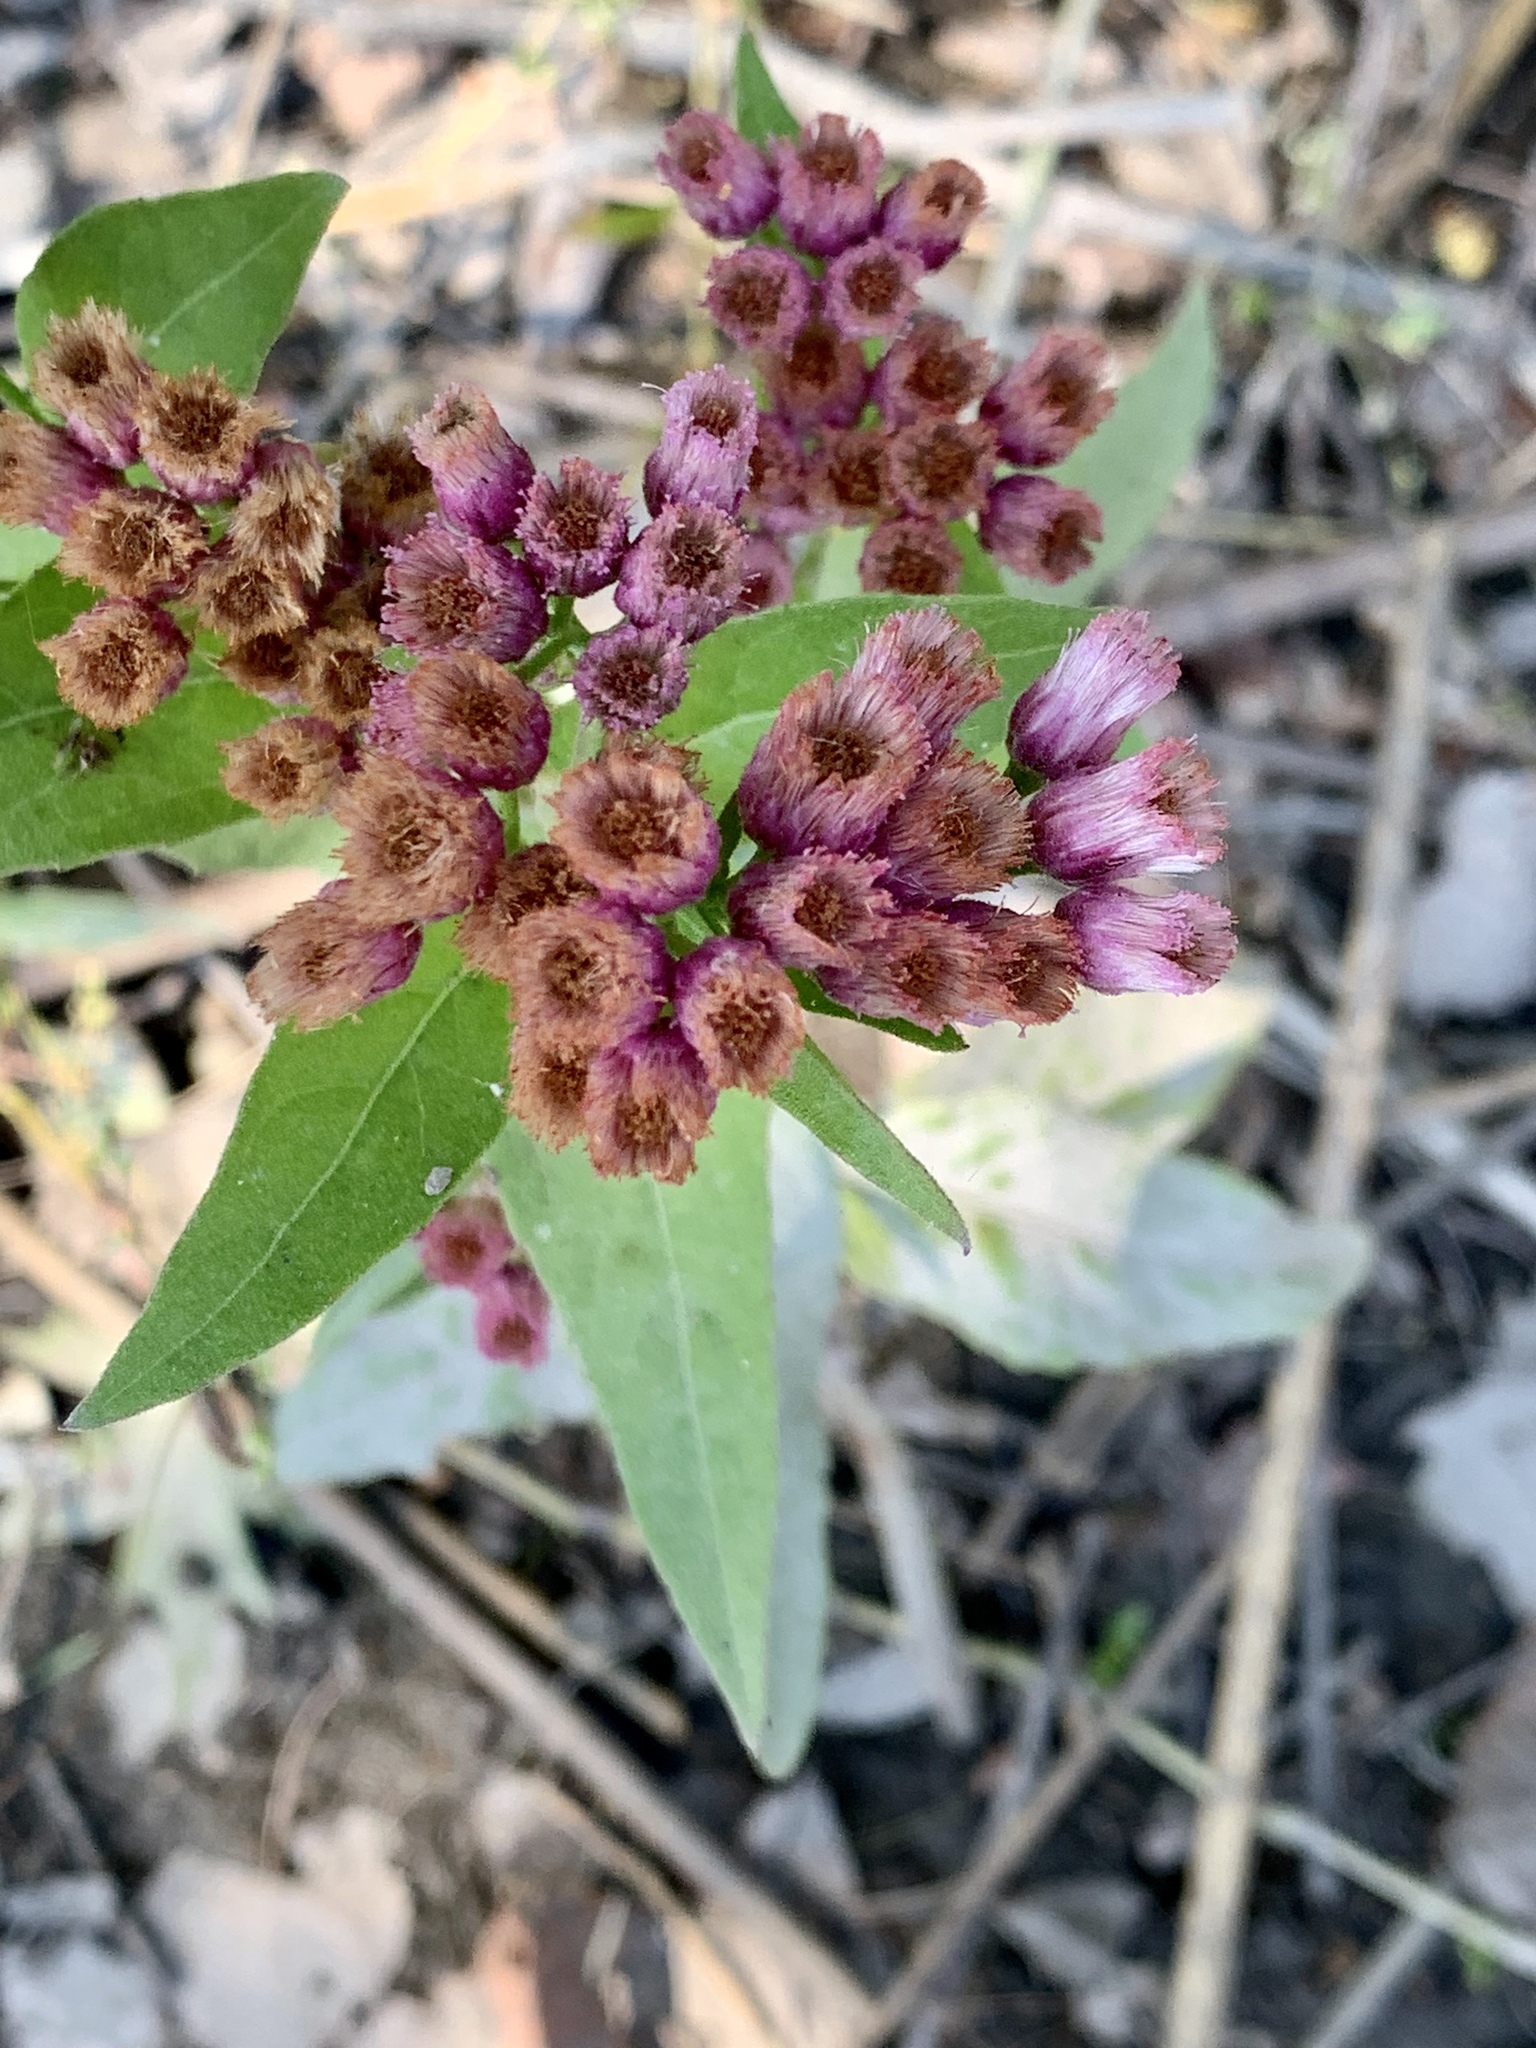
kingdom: Plantae
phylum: Tracheophyta
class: Magnoliopsida
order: Asterales
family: Asteraceae
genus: Pluchea
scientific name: Pluchea odorata
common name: Saltmarsh fleabane
